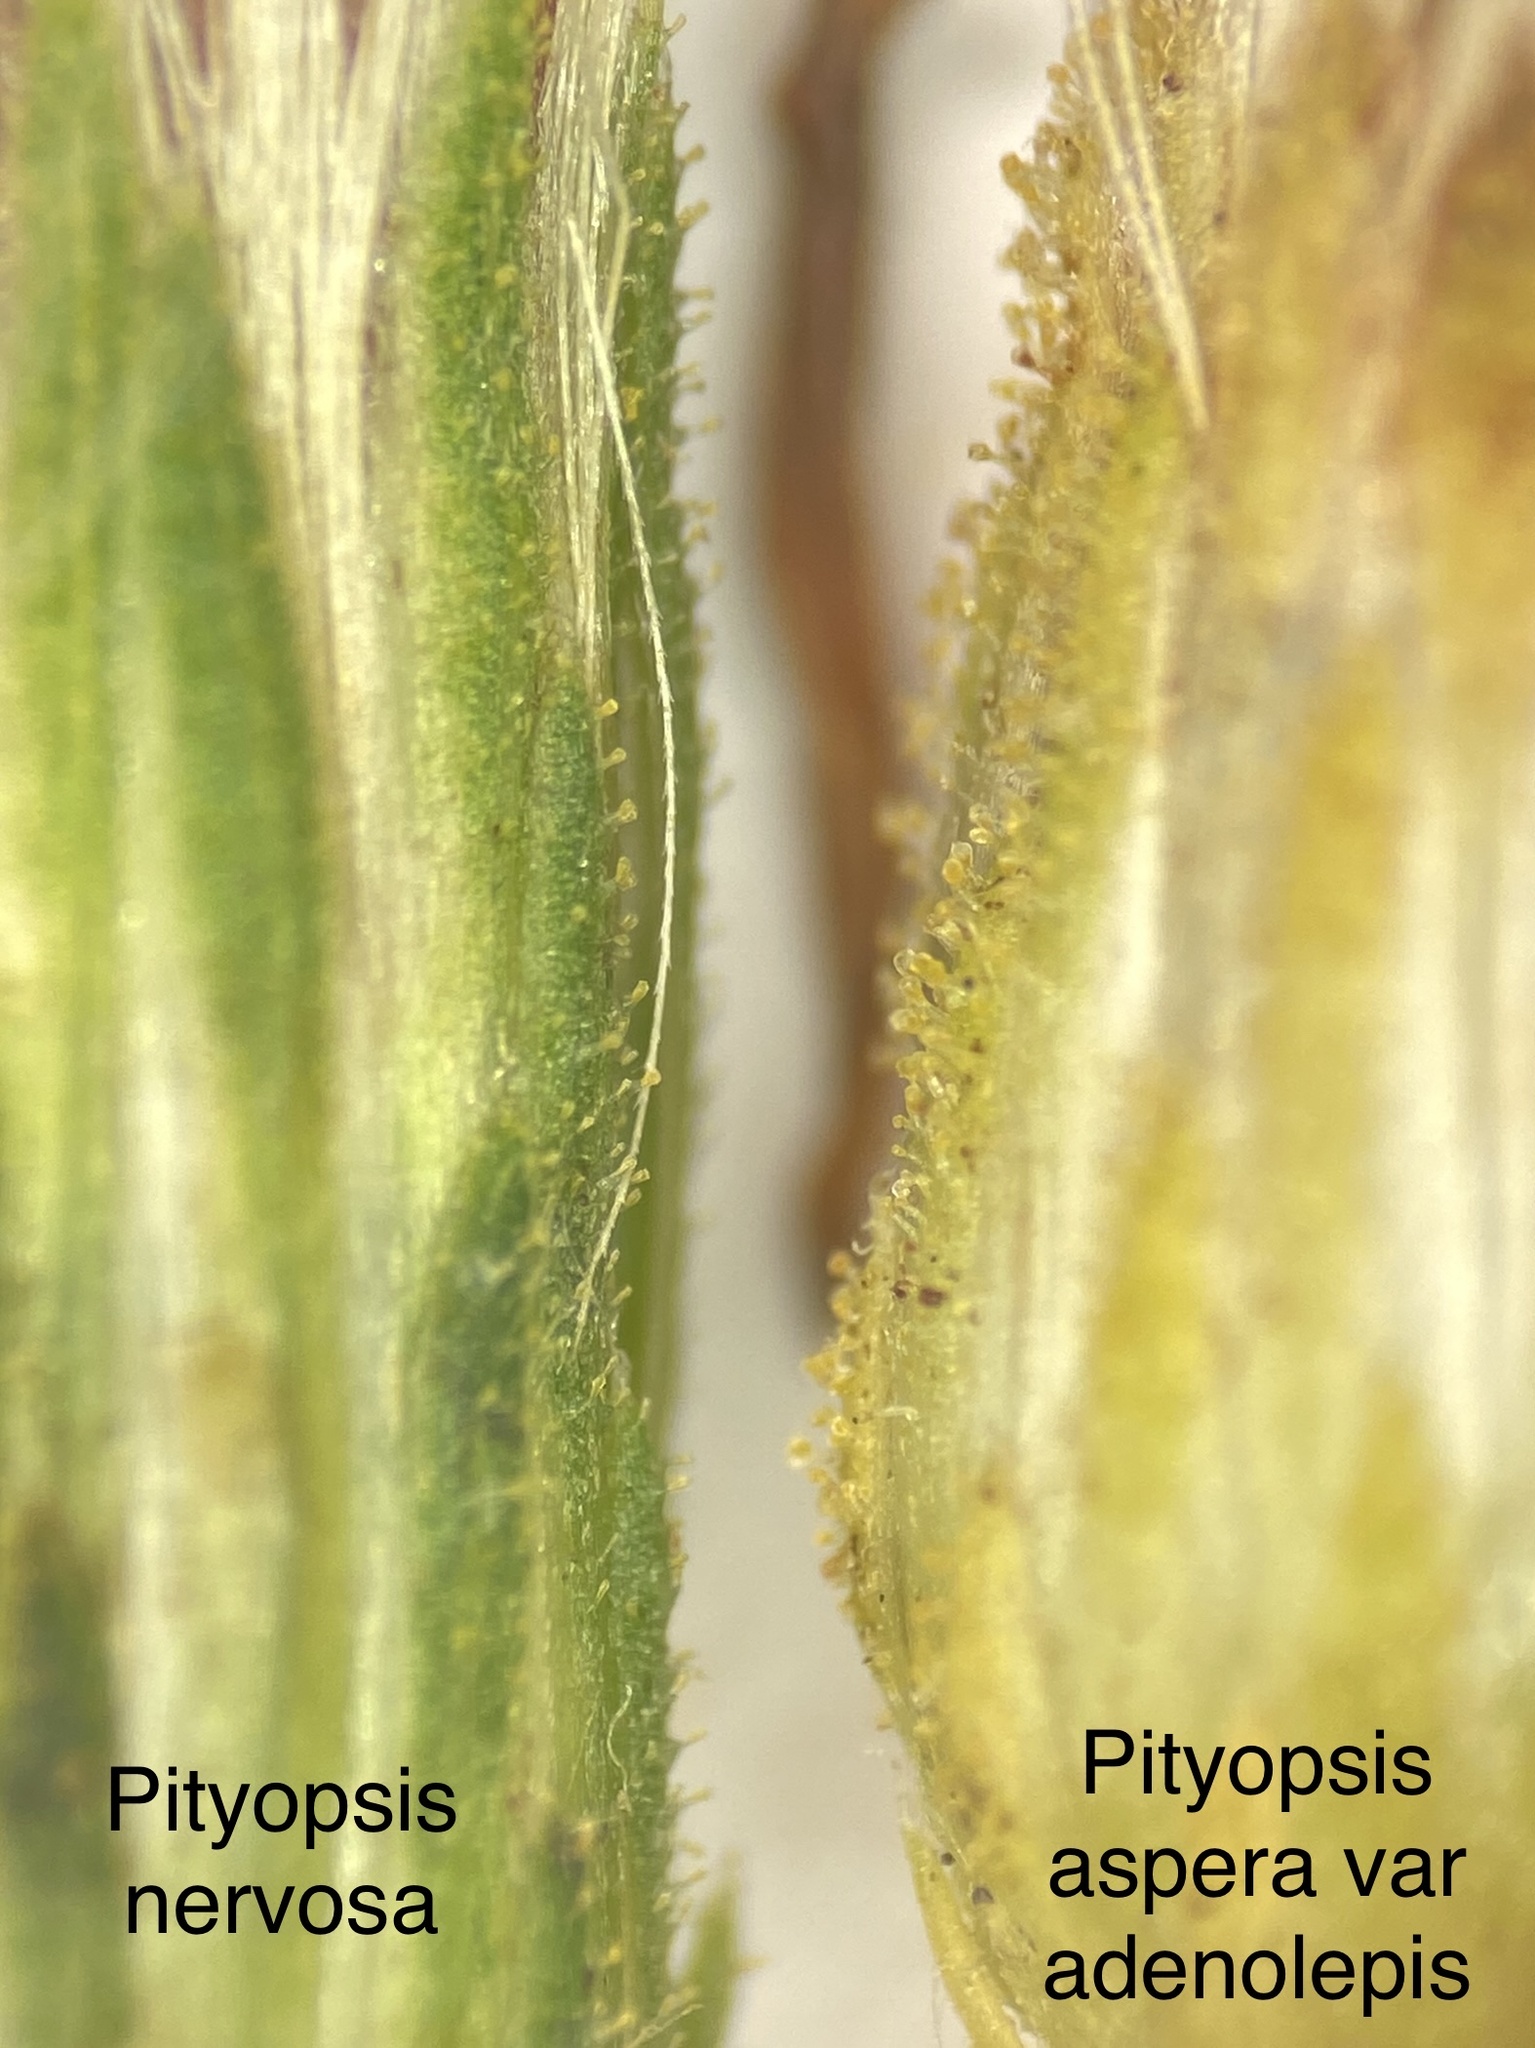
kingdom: Plantae
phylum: Tracheophyta
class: Magnoliopsida
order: Asterales
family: Asteraceae
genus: Pityopsis
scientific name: Pityopsis aspera
